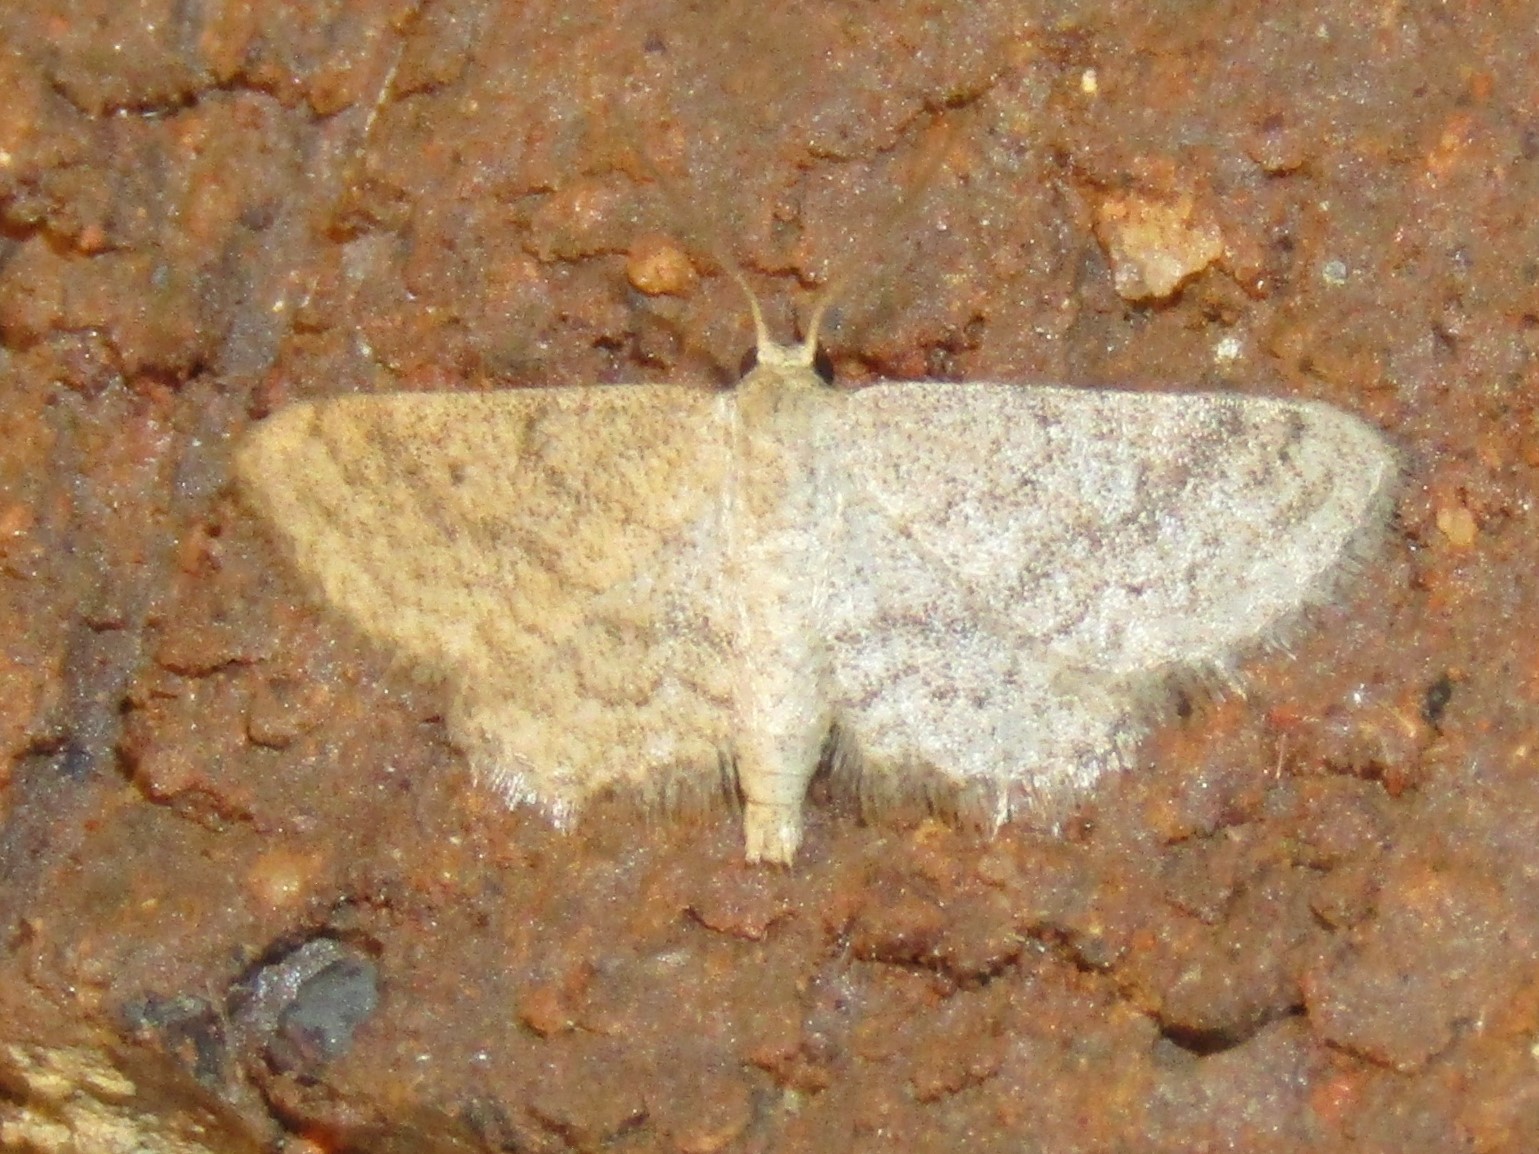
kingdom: Animalia
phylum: Arthropoda
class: Insecta
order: Lepidoptera
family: Geometridae
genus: Lobocleta
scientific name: Lobocleta ossularia
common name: Drab brown wave
